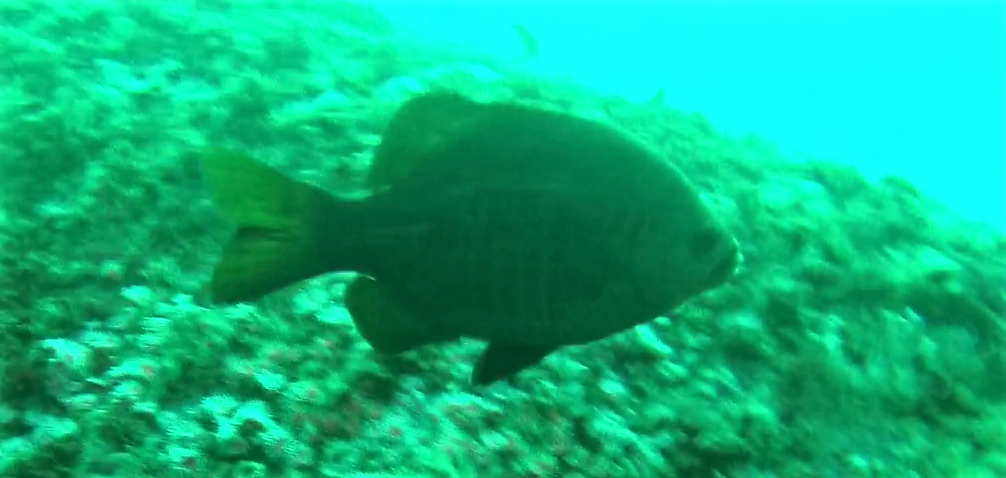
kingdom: Animalia
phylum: Chordata
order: Perciformes
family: Embiotocidae
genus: Embiotoca
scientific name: Embiotoca jacksoni
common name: Black perch
